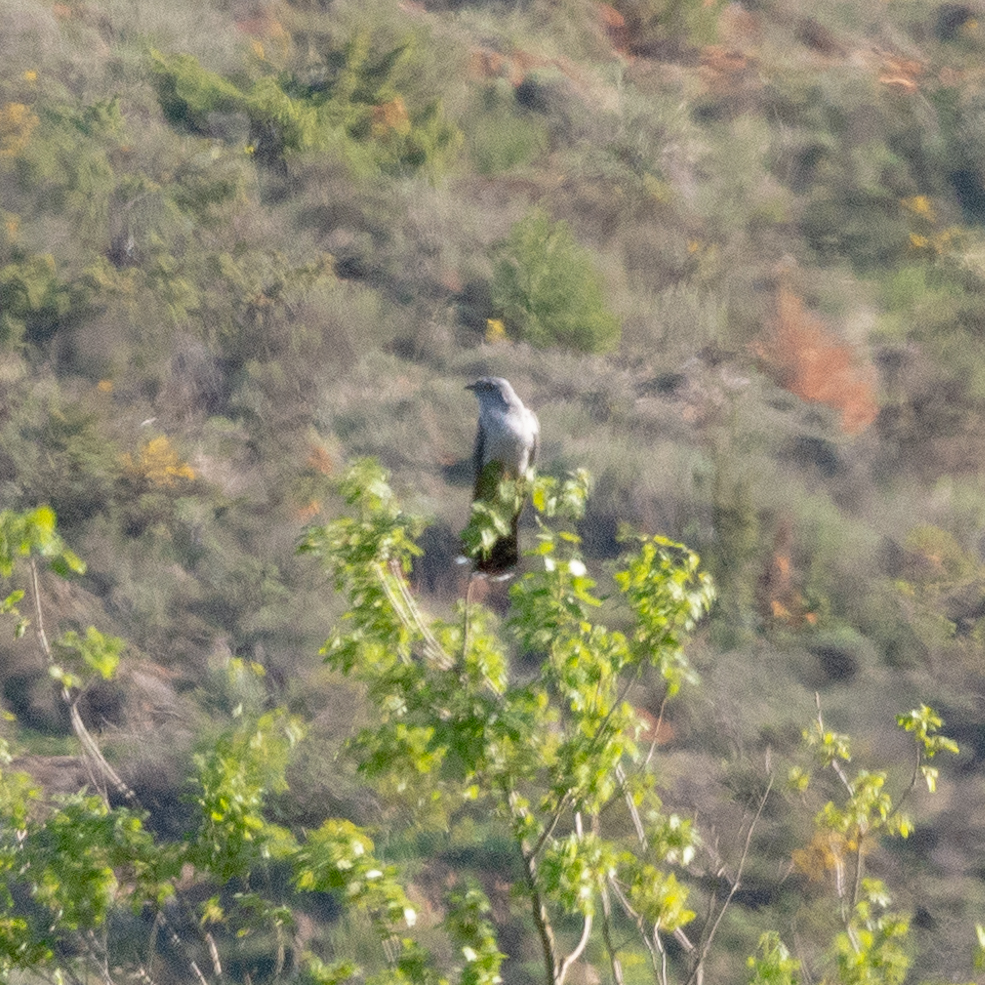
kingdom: Animalia
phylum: Chordata
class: Aves
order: Cuculiformes
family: Cuculidae
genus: Cuculus
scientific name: Cuculus canorus
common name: Common cuckoo
